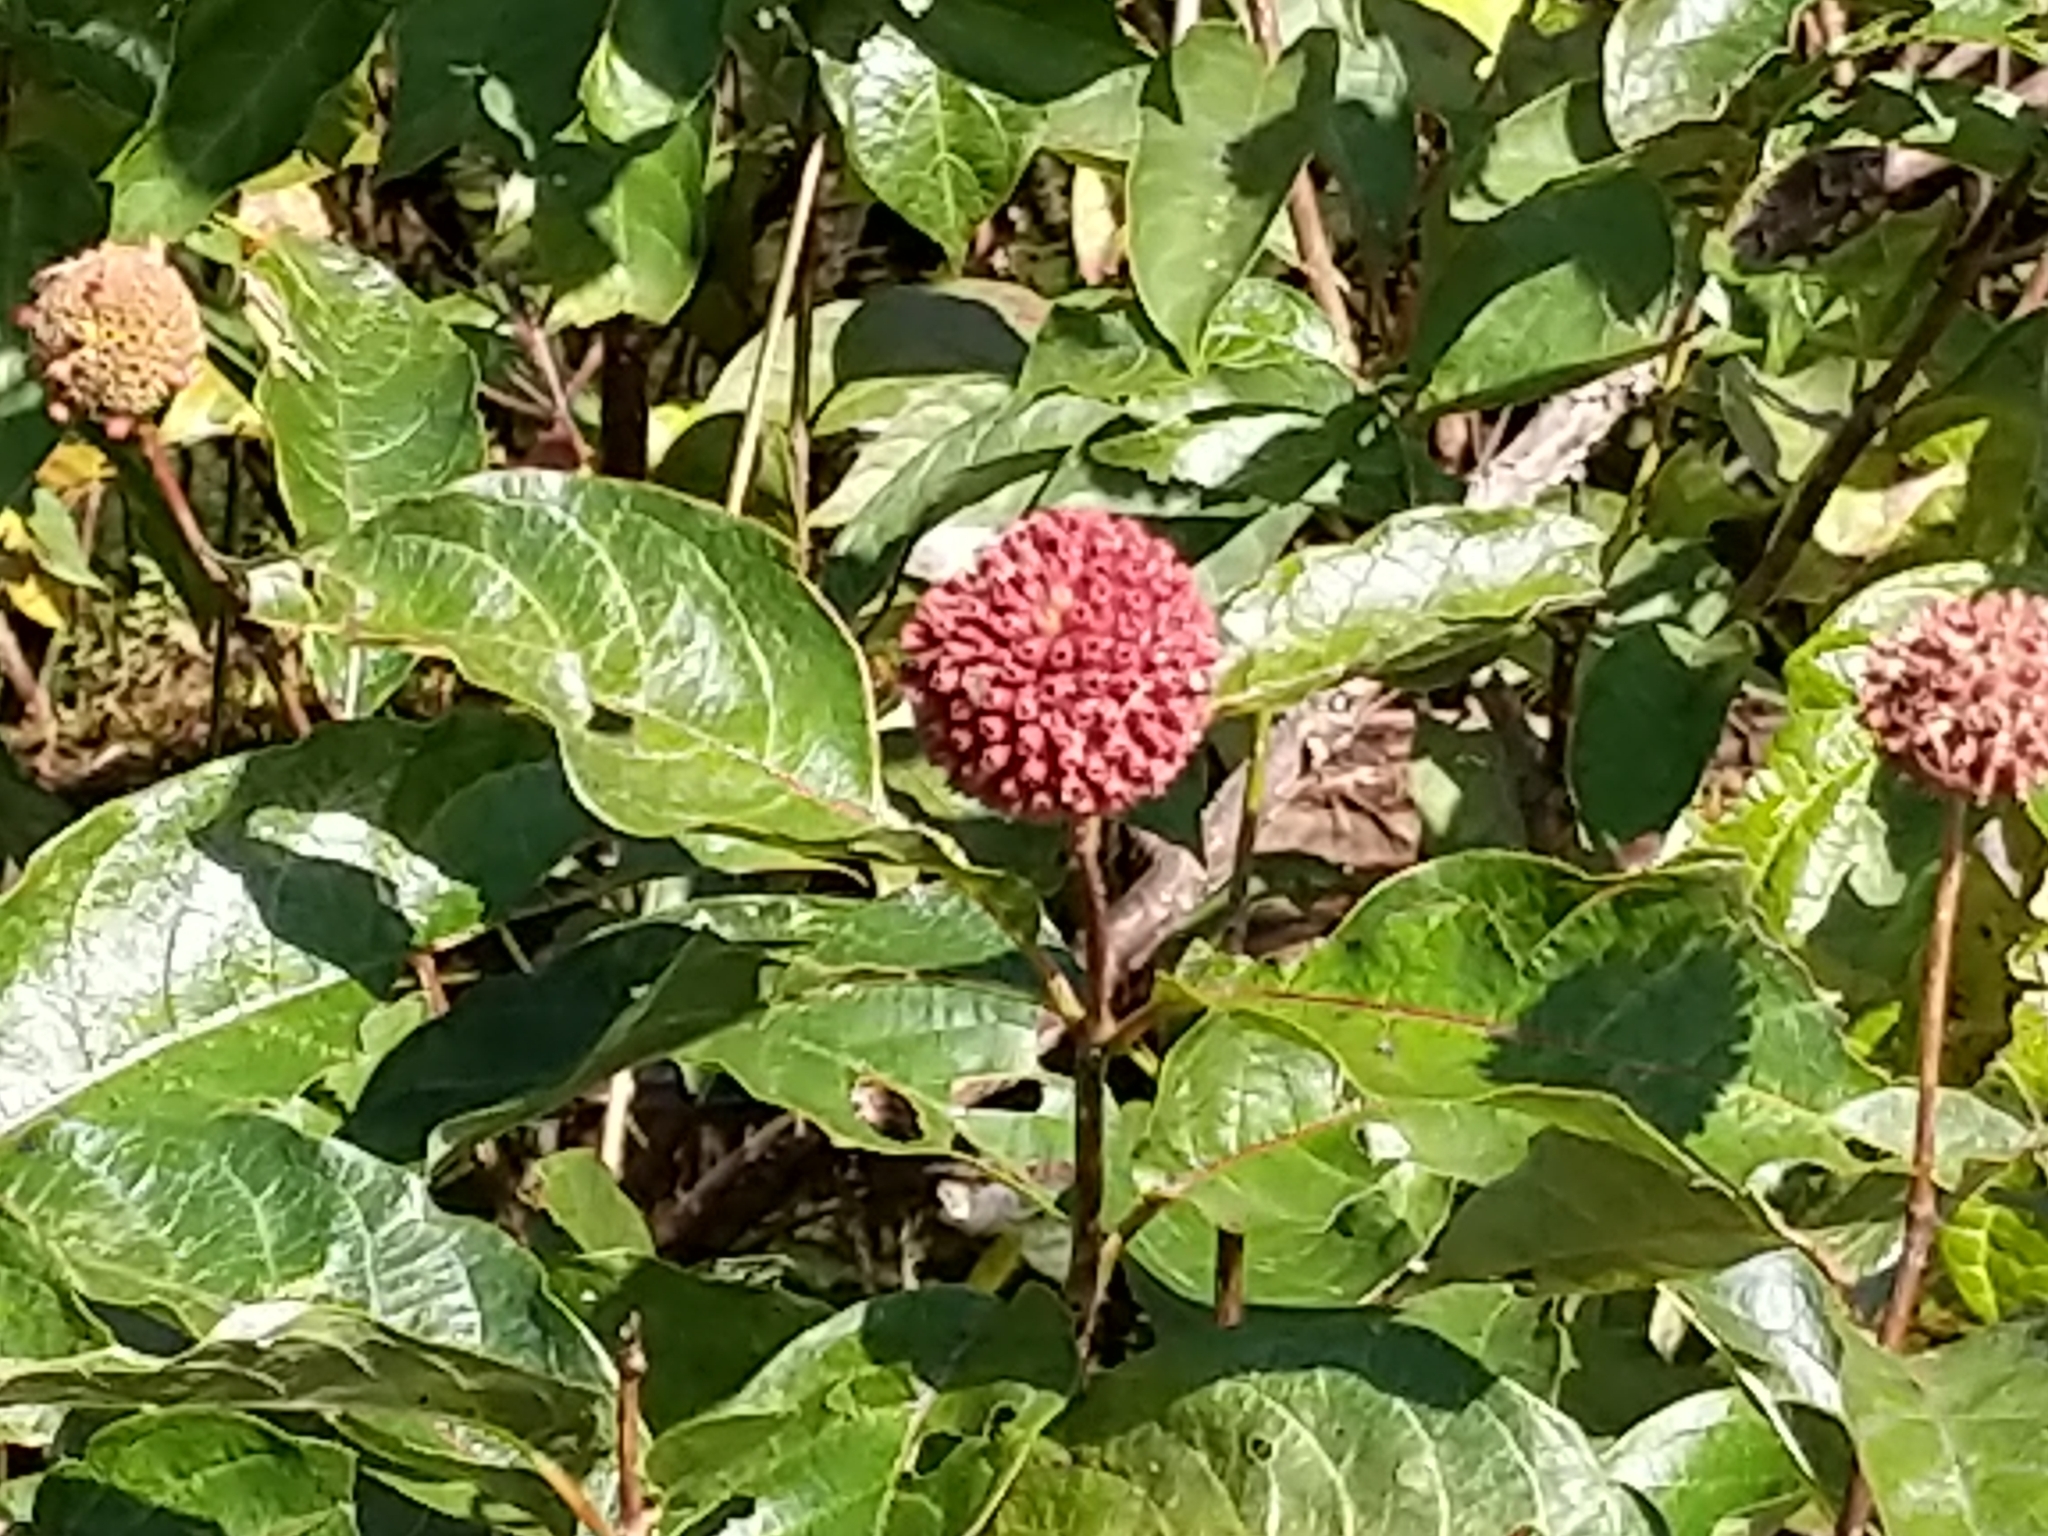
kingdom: Plantae
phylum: Tracheophyta
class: Magnoliopsida
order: Gentianales
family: Rubiaceae
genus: Cephalanthus
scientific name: Cephalanthus occidentalis
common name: Button-willow
